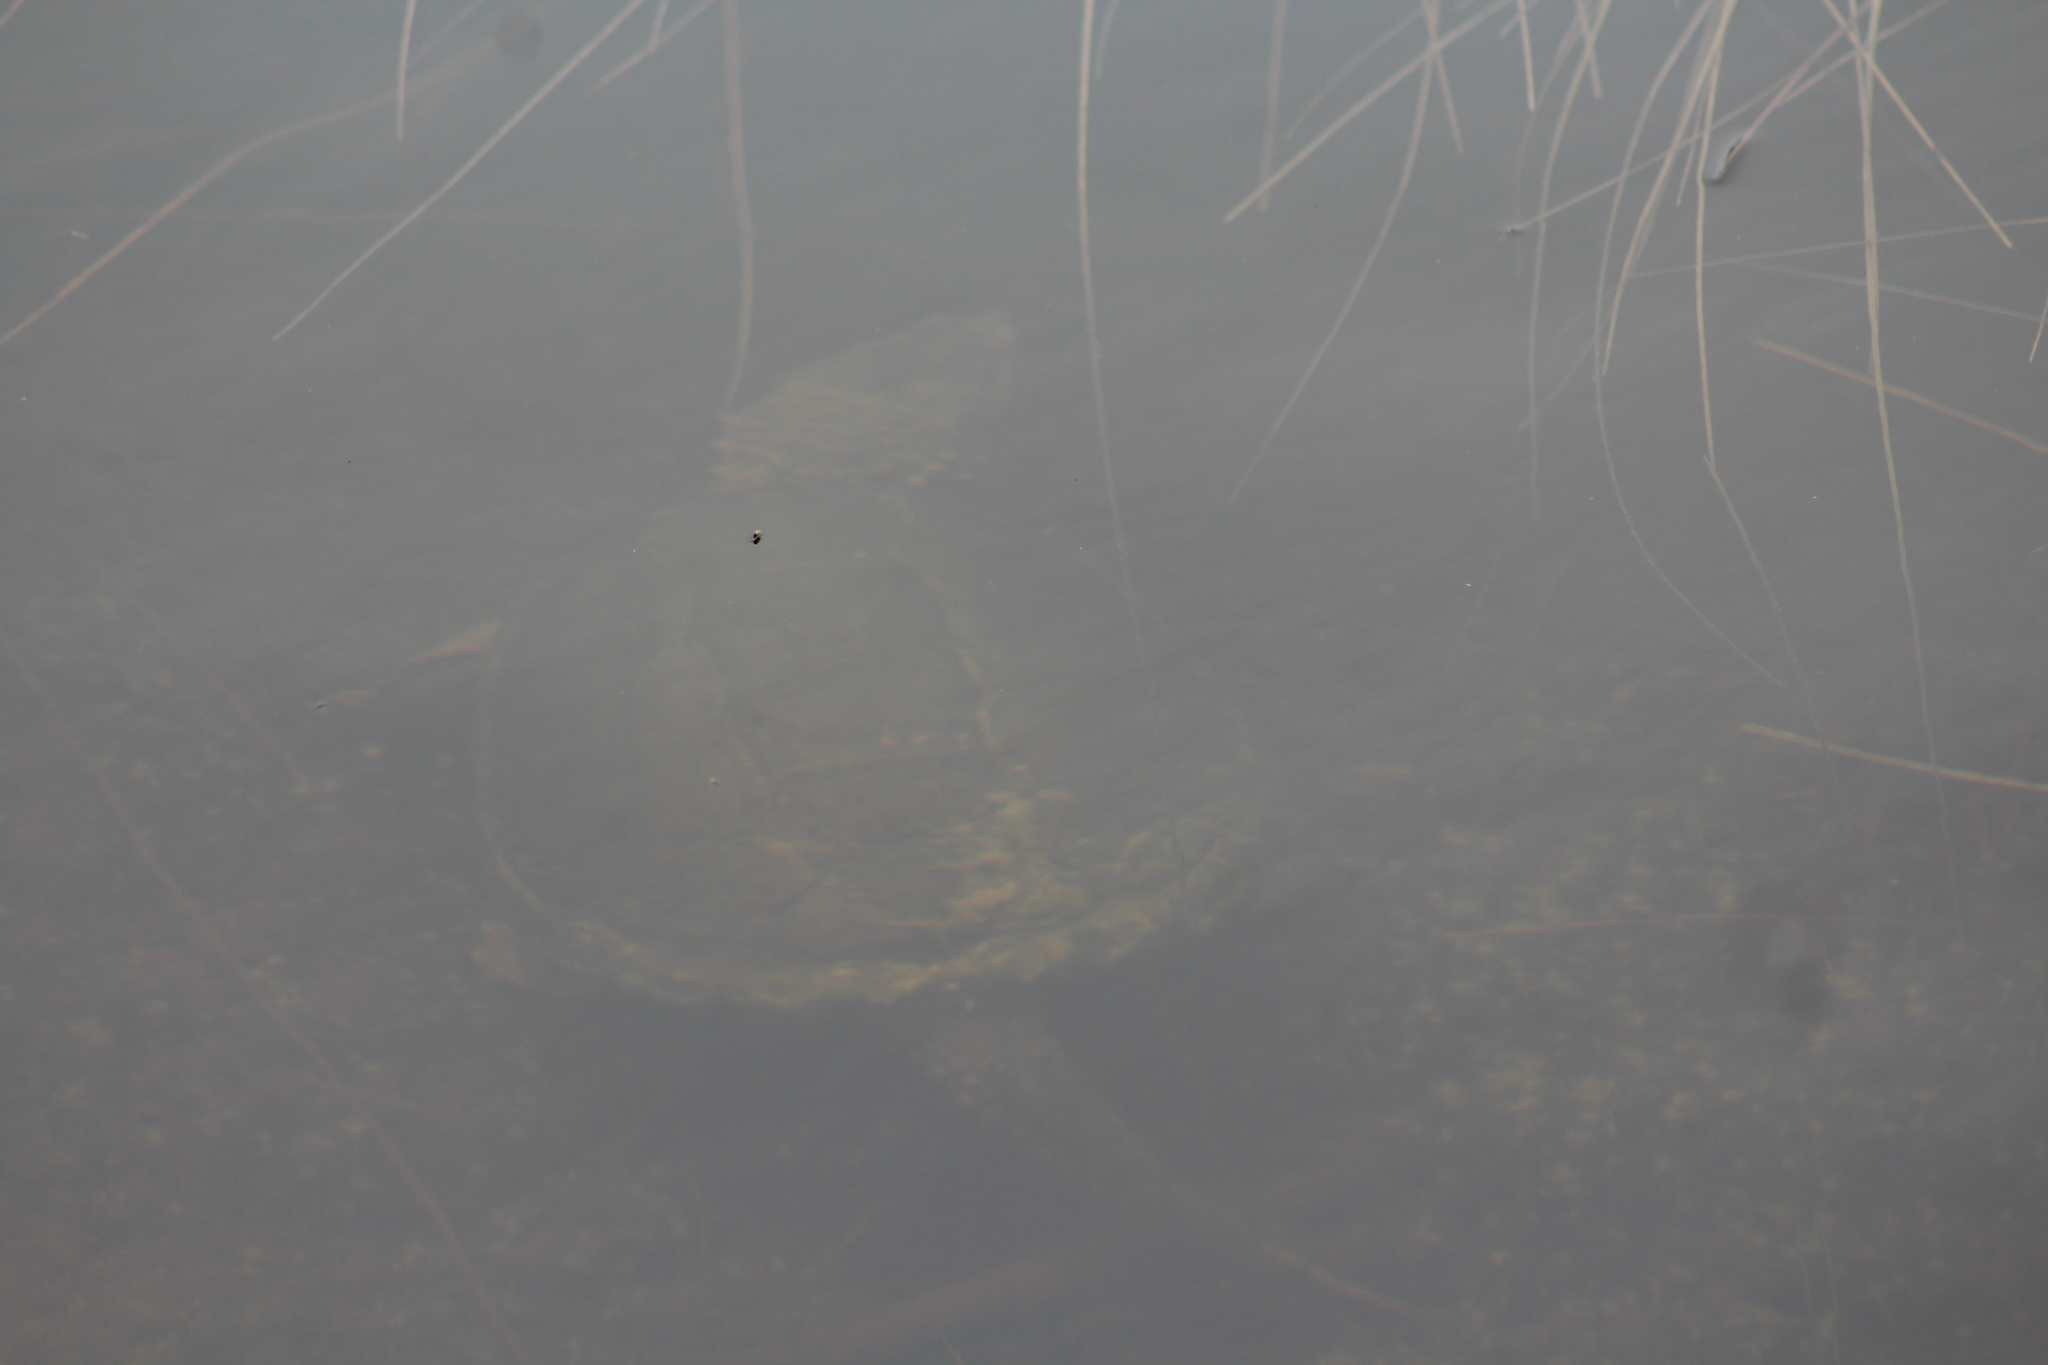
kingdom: Animalia
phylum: Chordata
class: Testudines
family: Chelydridae
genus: Chelydra
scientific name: Chelydra serpentina
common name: Common snapping turtle
